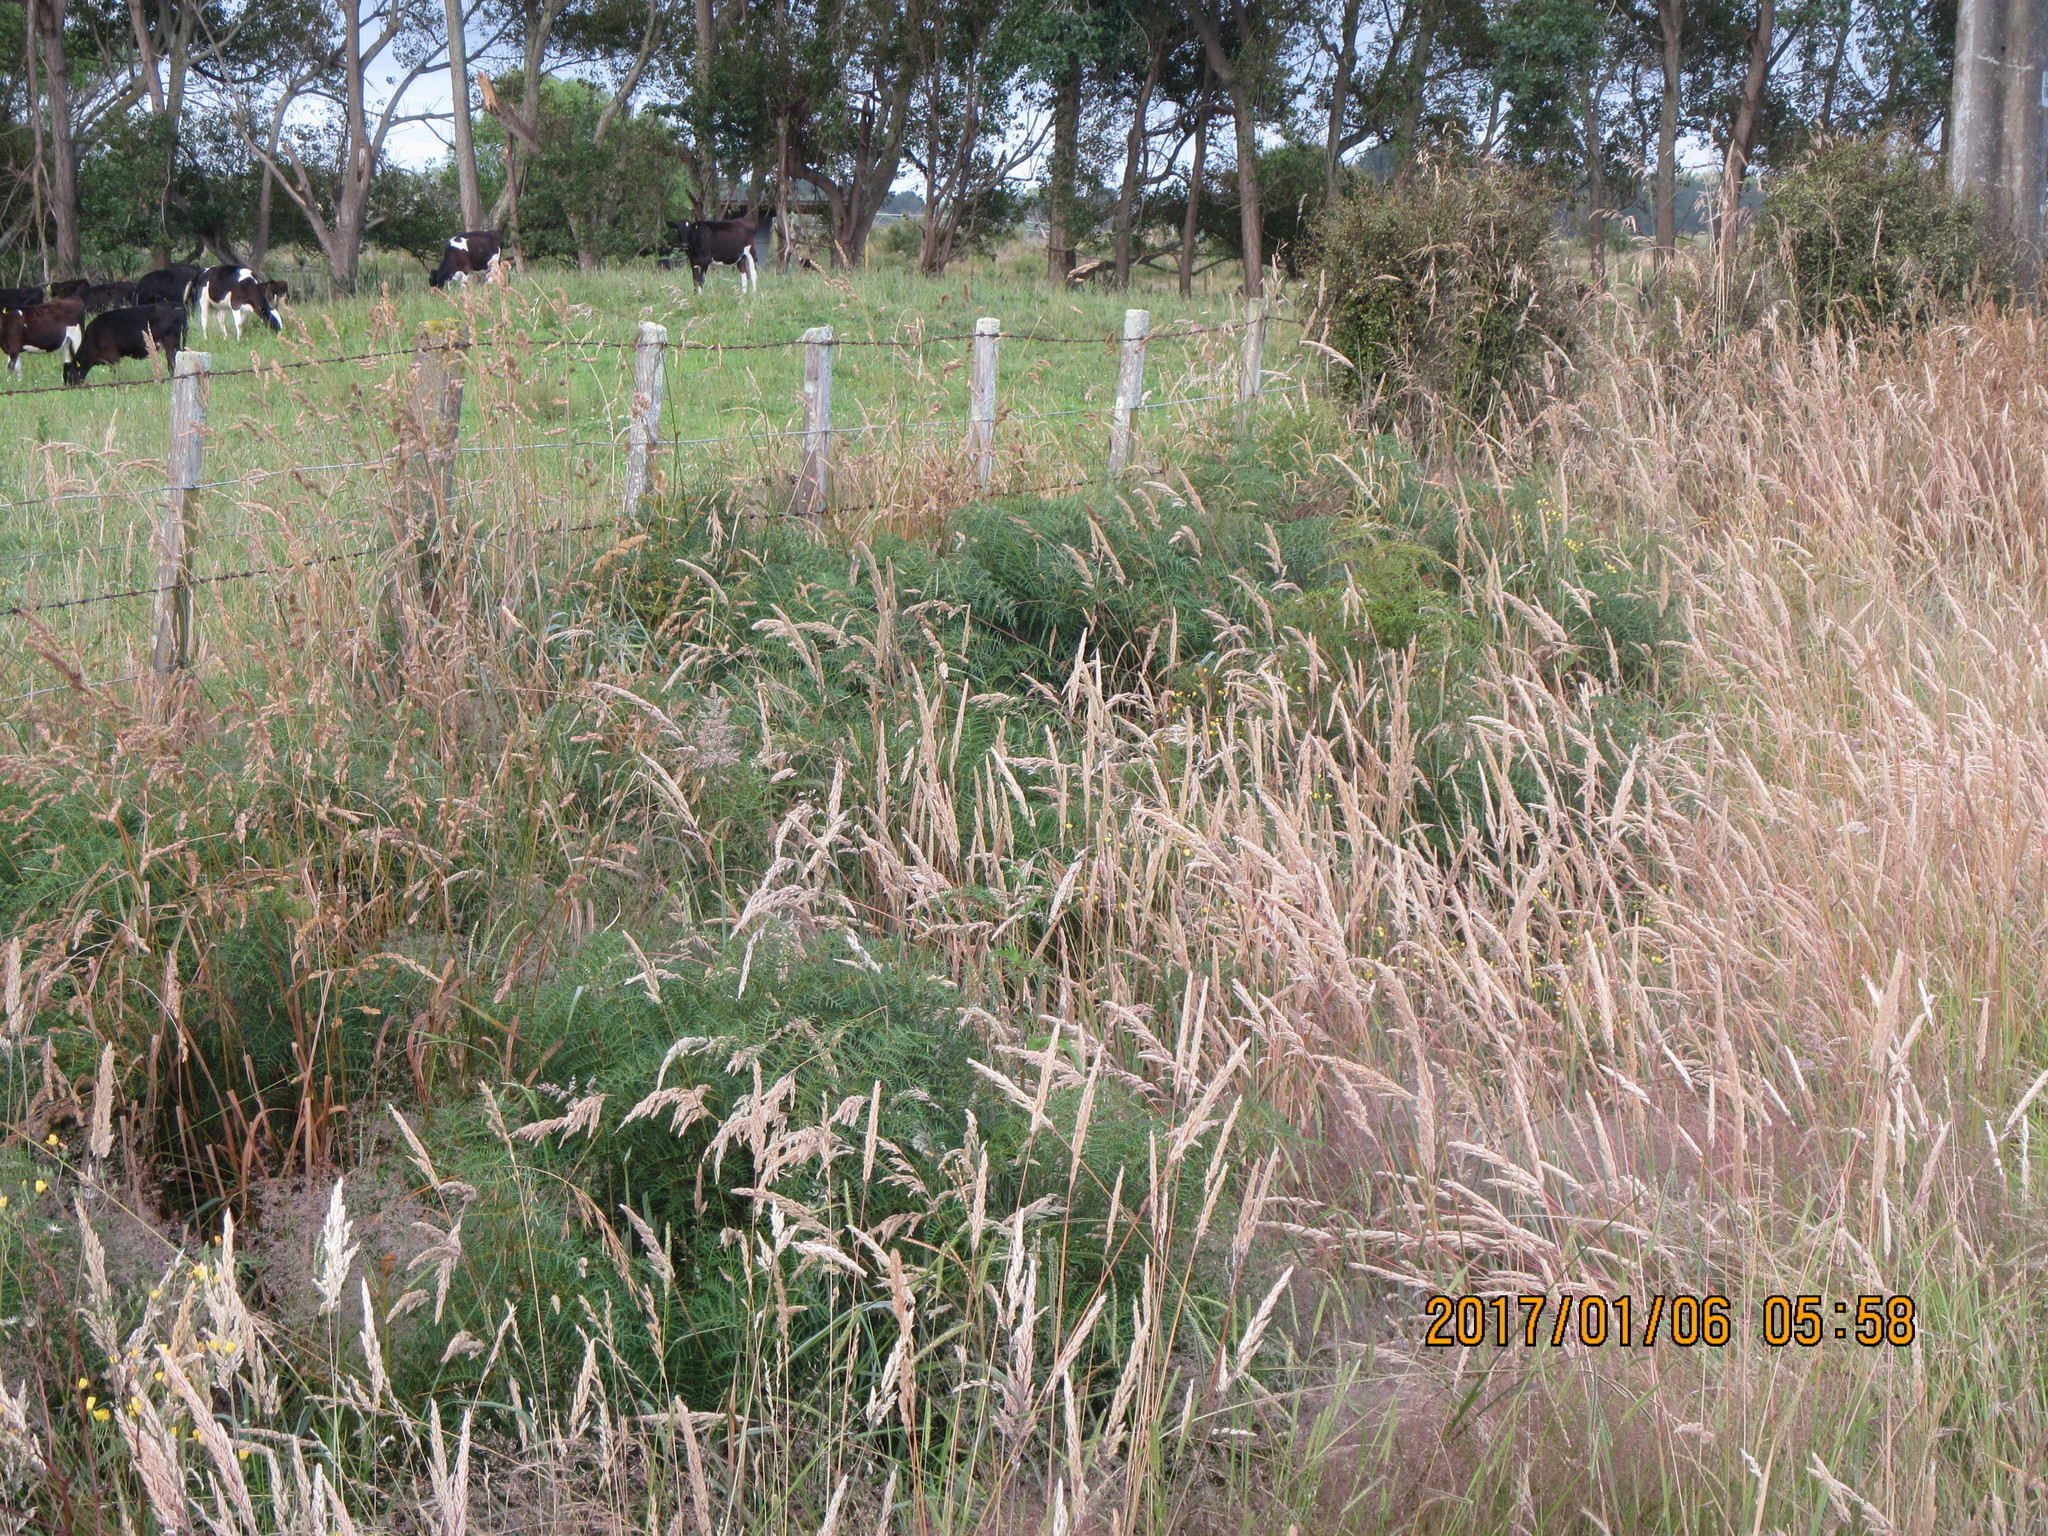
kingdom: Plantae
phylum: Tracheophyta
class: Polypodiopsida
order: Polypodiales
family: Dennstaedtiaceae
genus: Pteridium
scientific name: Pteridium esculentum
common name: Bracken fern
